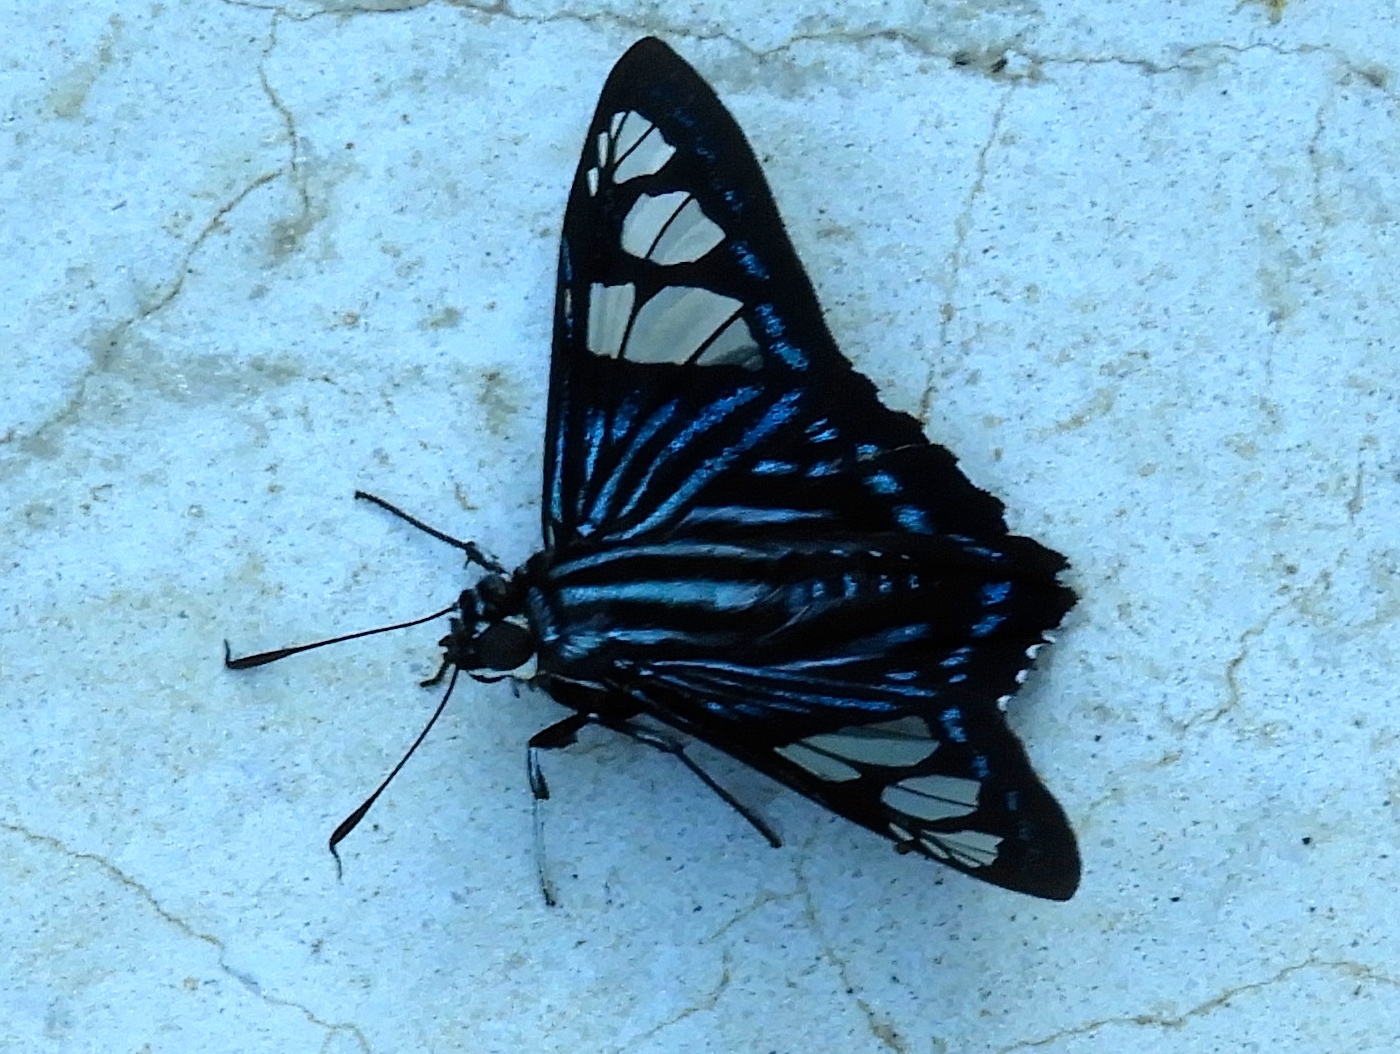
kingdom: Animalia
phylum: Arthropoda
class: Insecta
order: Lepidoptera
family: Hesperiidae
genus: Phocides
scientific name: Phocides pigmalion
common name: Mangrove skipper
